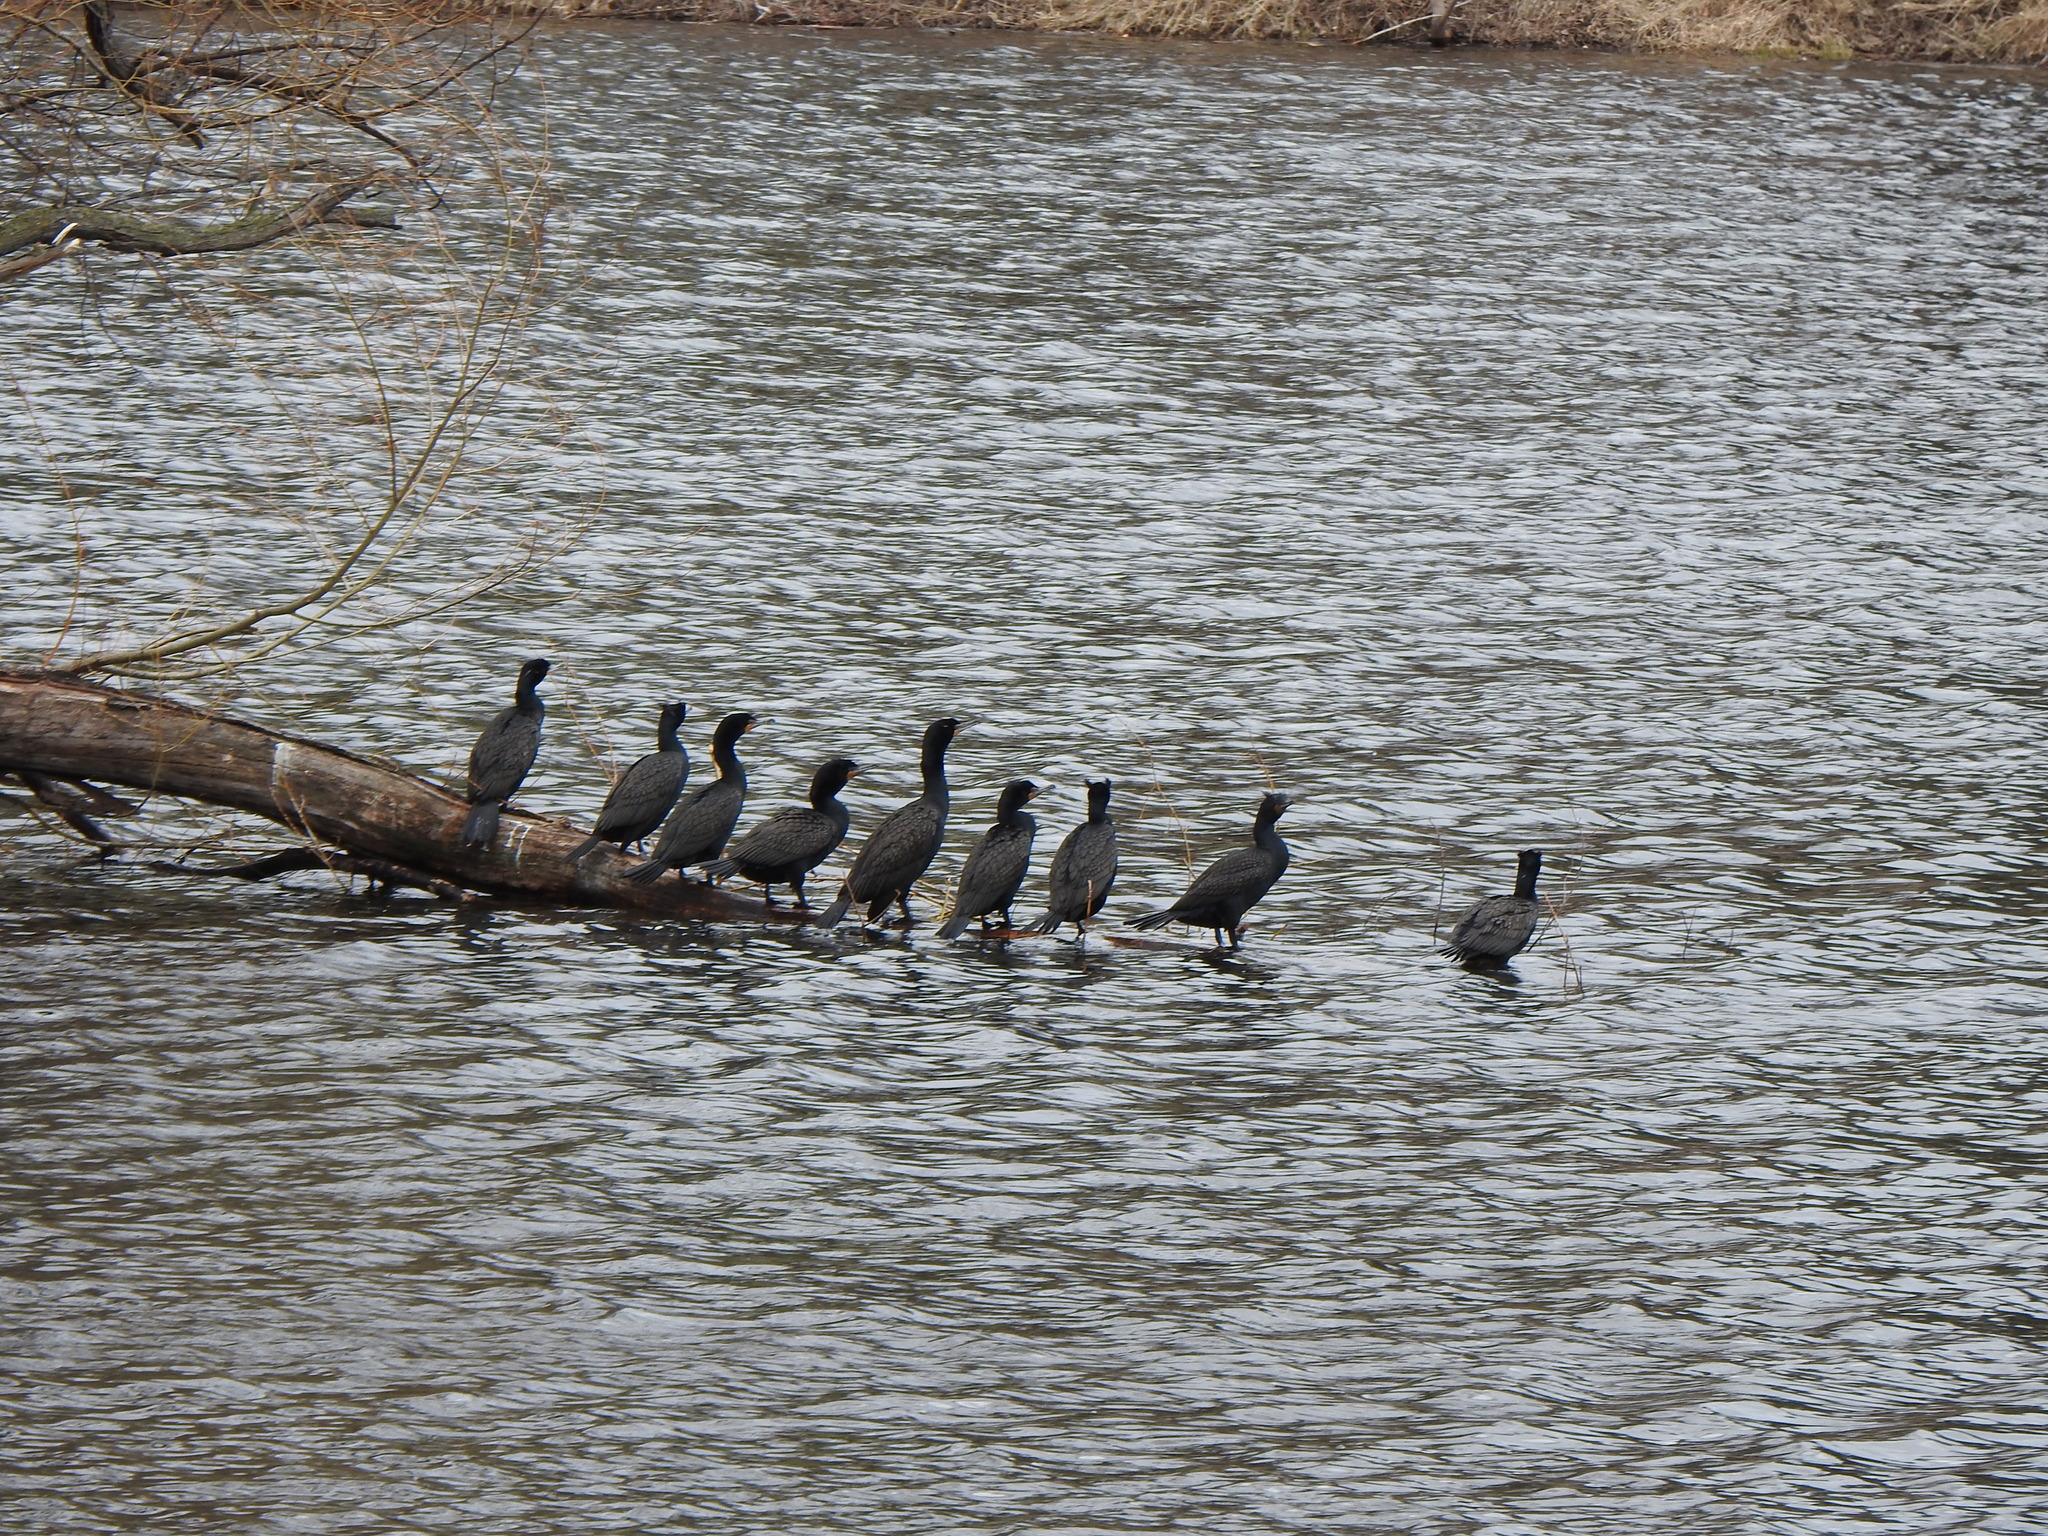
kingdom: Animalia
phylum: Chordata
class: Aves
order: Suliformes
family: Phalacrocoracidae
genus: Phalacrocorax
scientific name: Phalacrocorax auritus
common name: Double-crested cormorant
